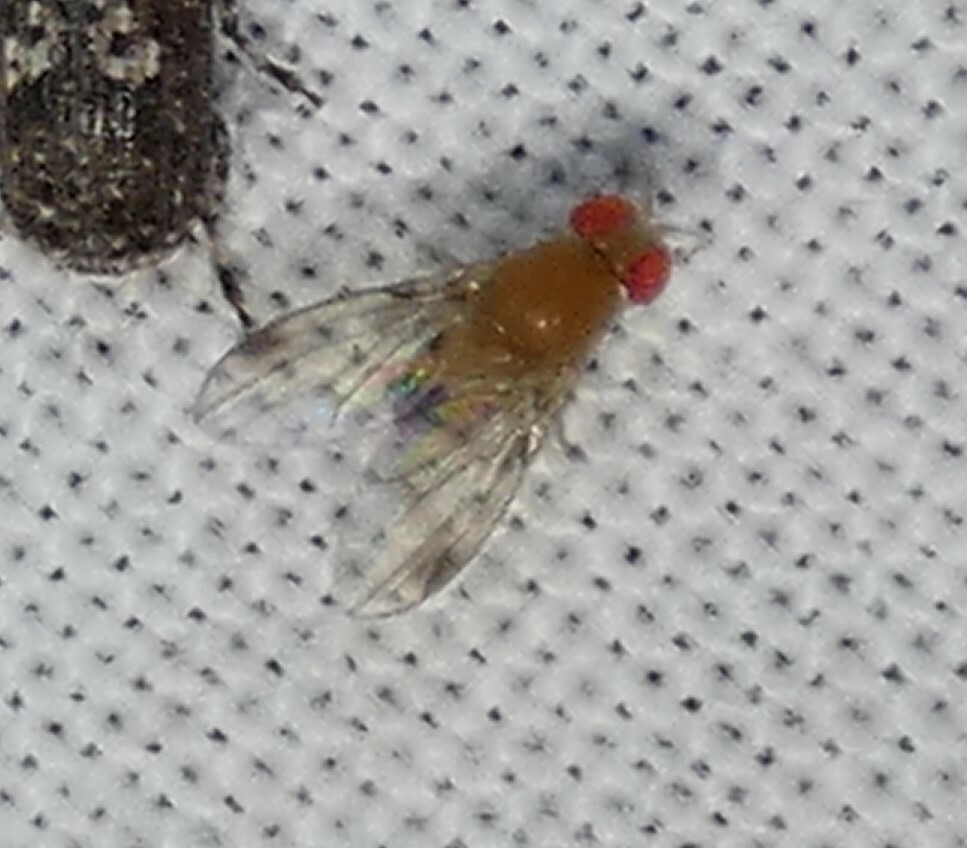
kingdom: Animalia
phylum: Arthropoda
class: Insecta
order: Diptera
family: Drosophilidae
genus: Leucophenga
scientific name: Leucophenga varia
